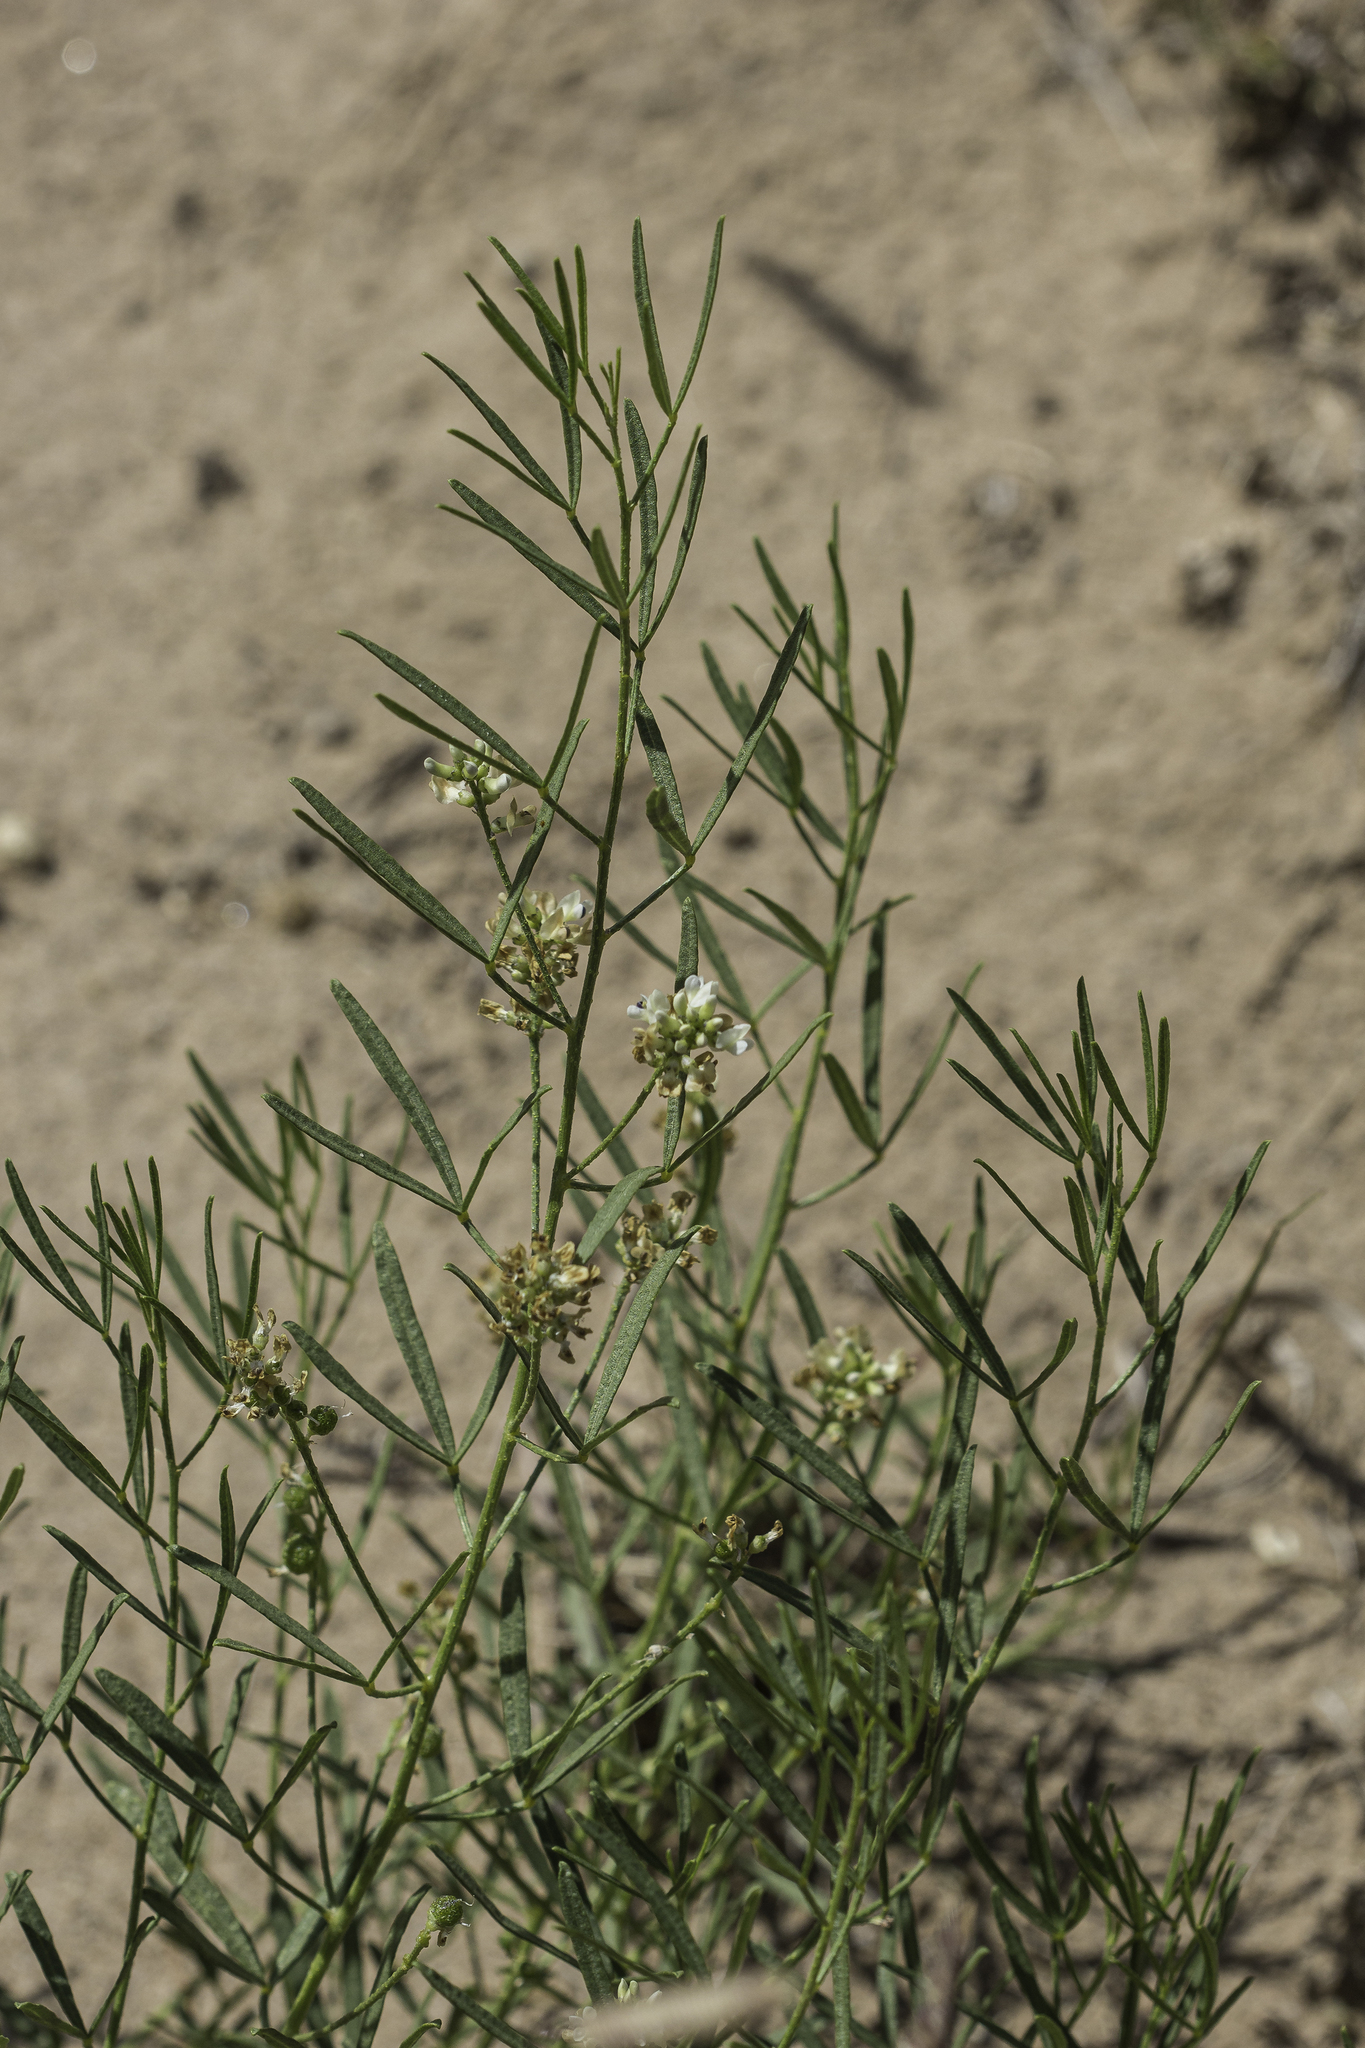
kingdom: Plantae
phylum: Tracheophyta
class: Magnoliopsida
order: Fabales
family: Fabaceae
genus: Ladeania
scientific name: Ladeania lanceolata
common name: Dune scurf-pea
